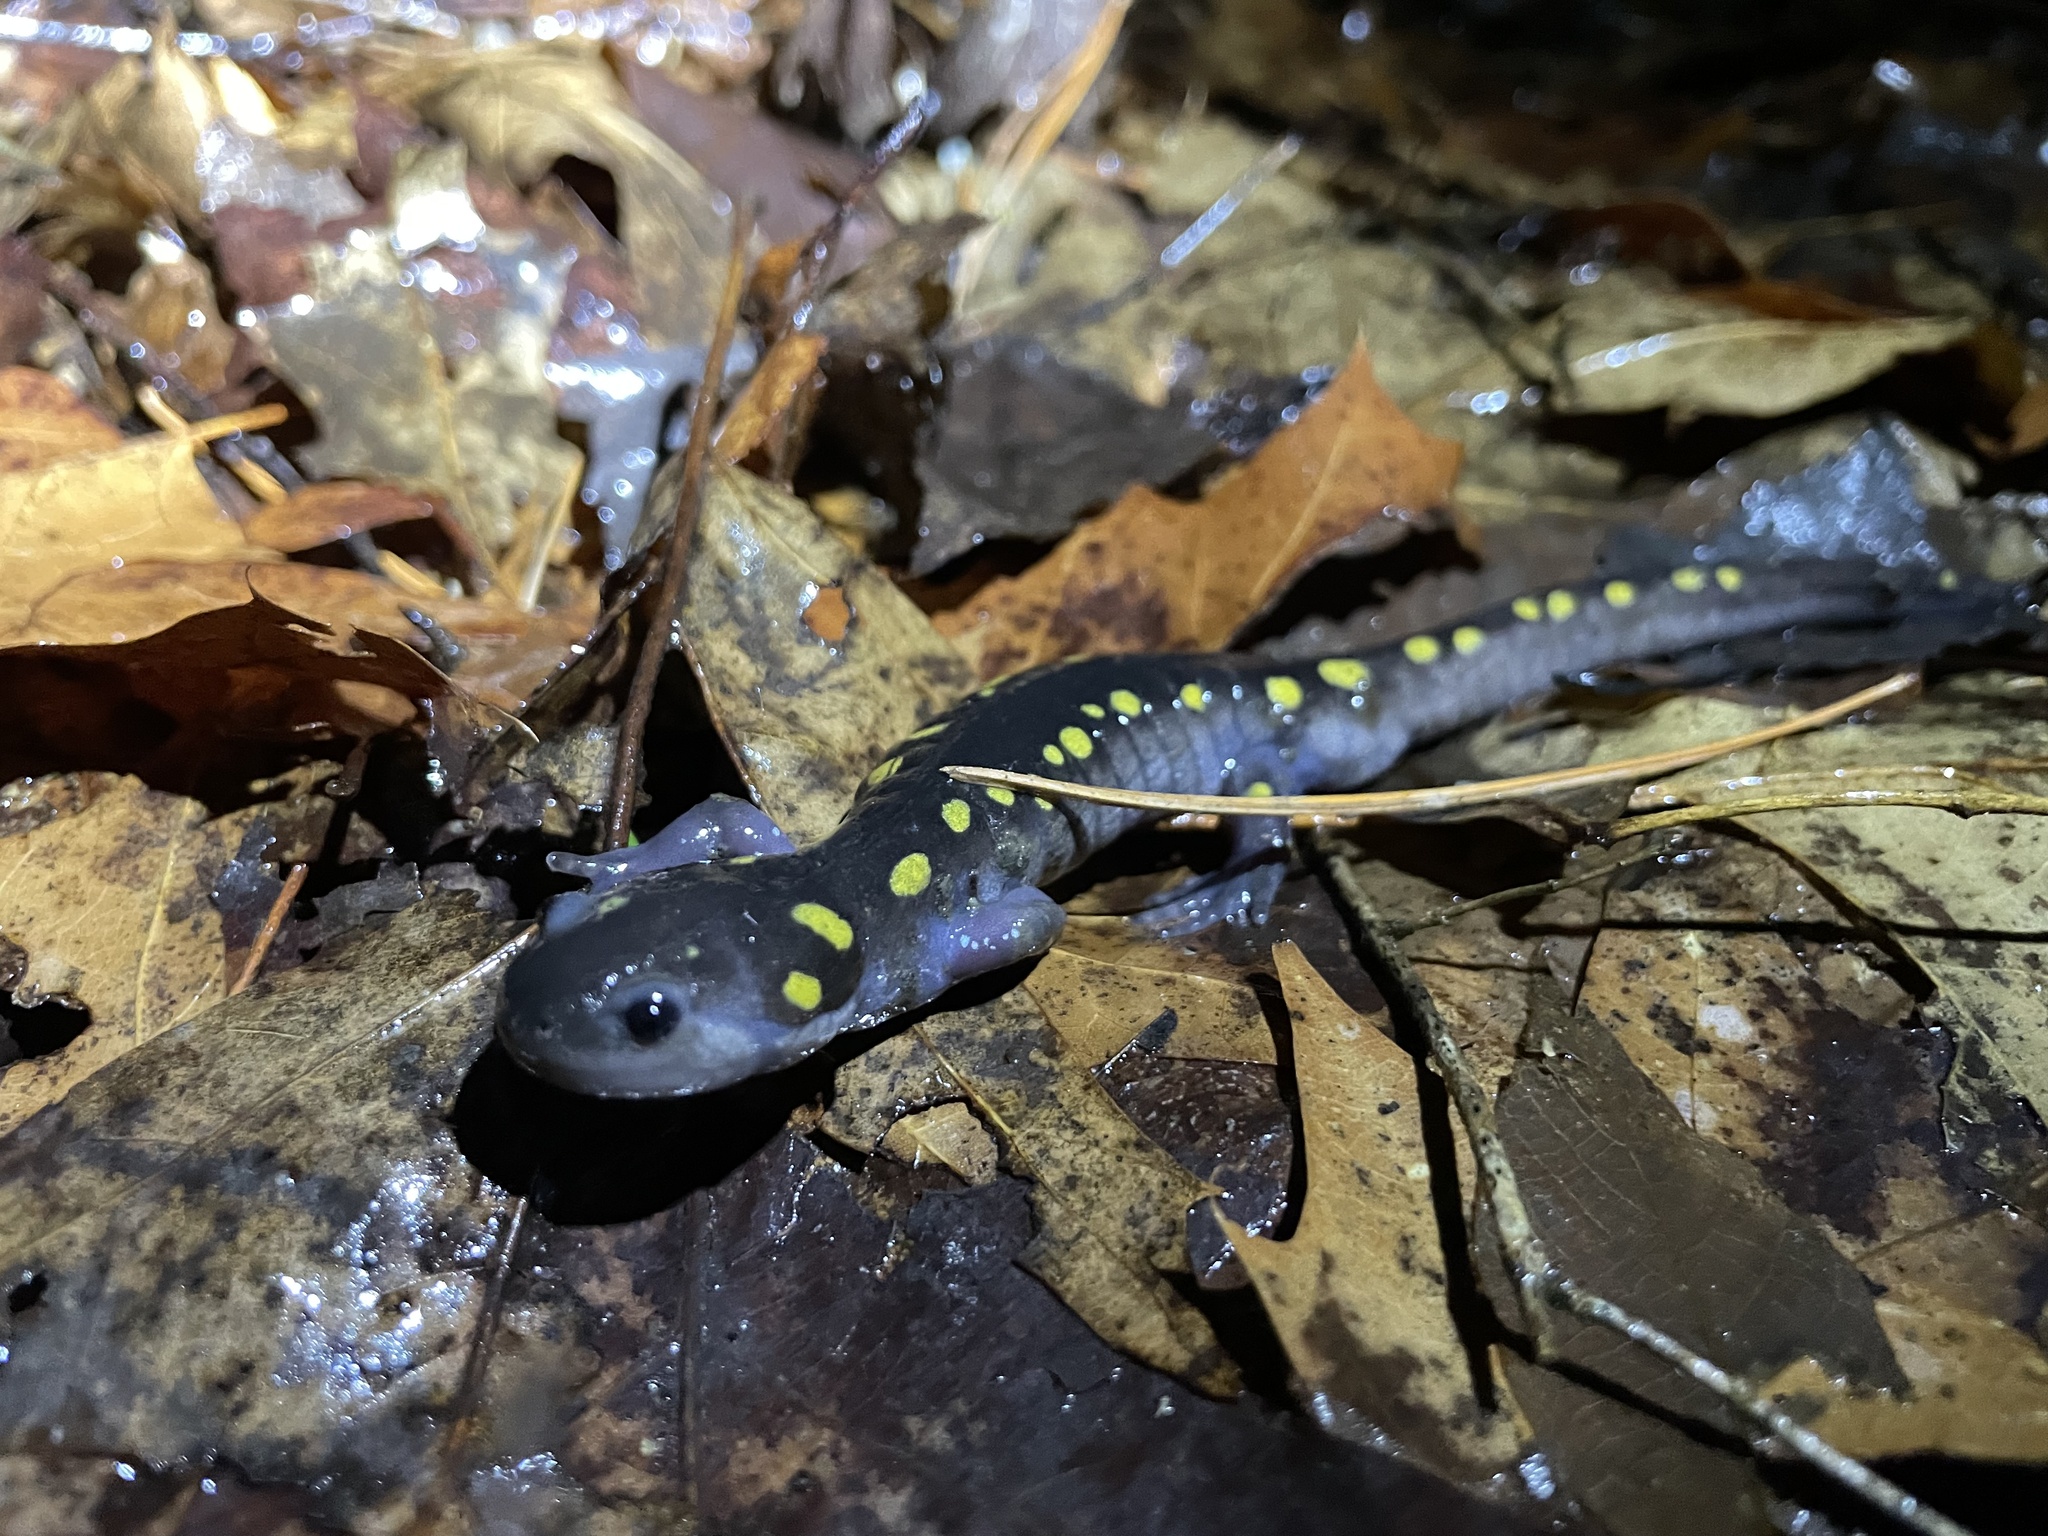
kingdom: Animalia
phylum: Chordata
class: Amphibia
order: Caudata
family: Ambystomatidae
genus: Ambystoma
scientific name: Ambystoma maculatum
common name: Spotted salamander
